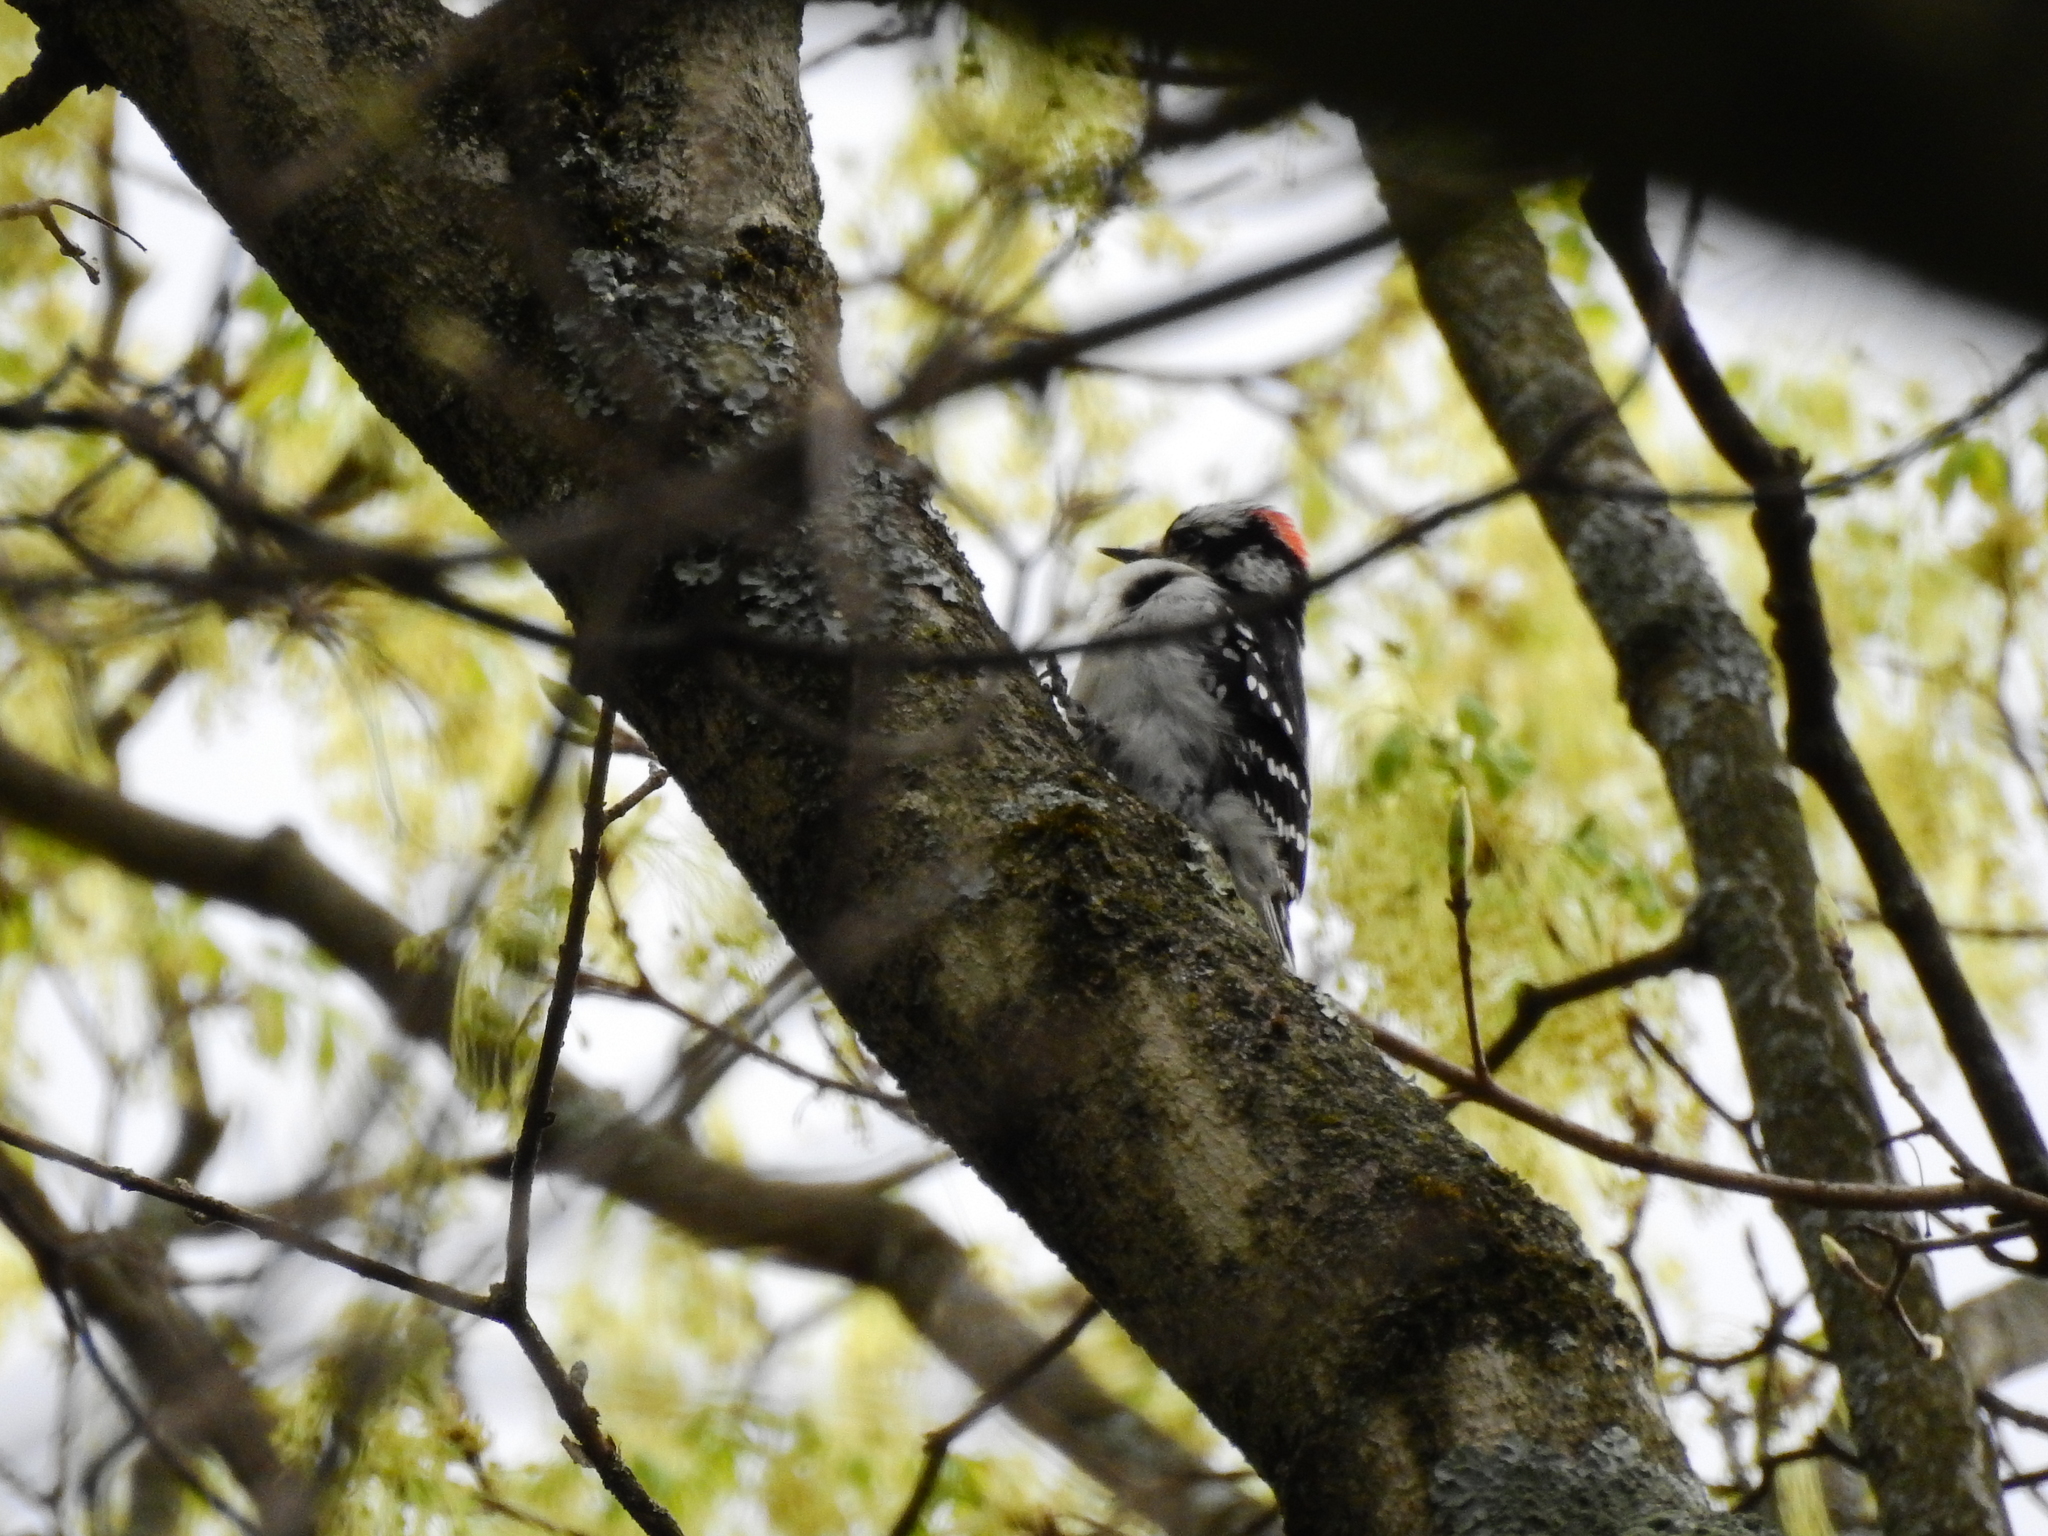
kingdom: Animalia
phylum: Chordata
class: Aves
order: Piciformes
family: Picidae
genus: Dryobates
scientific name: Dryobates pubescens
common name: Downy woodpecker
